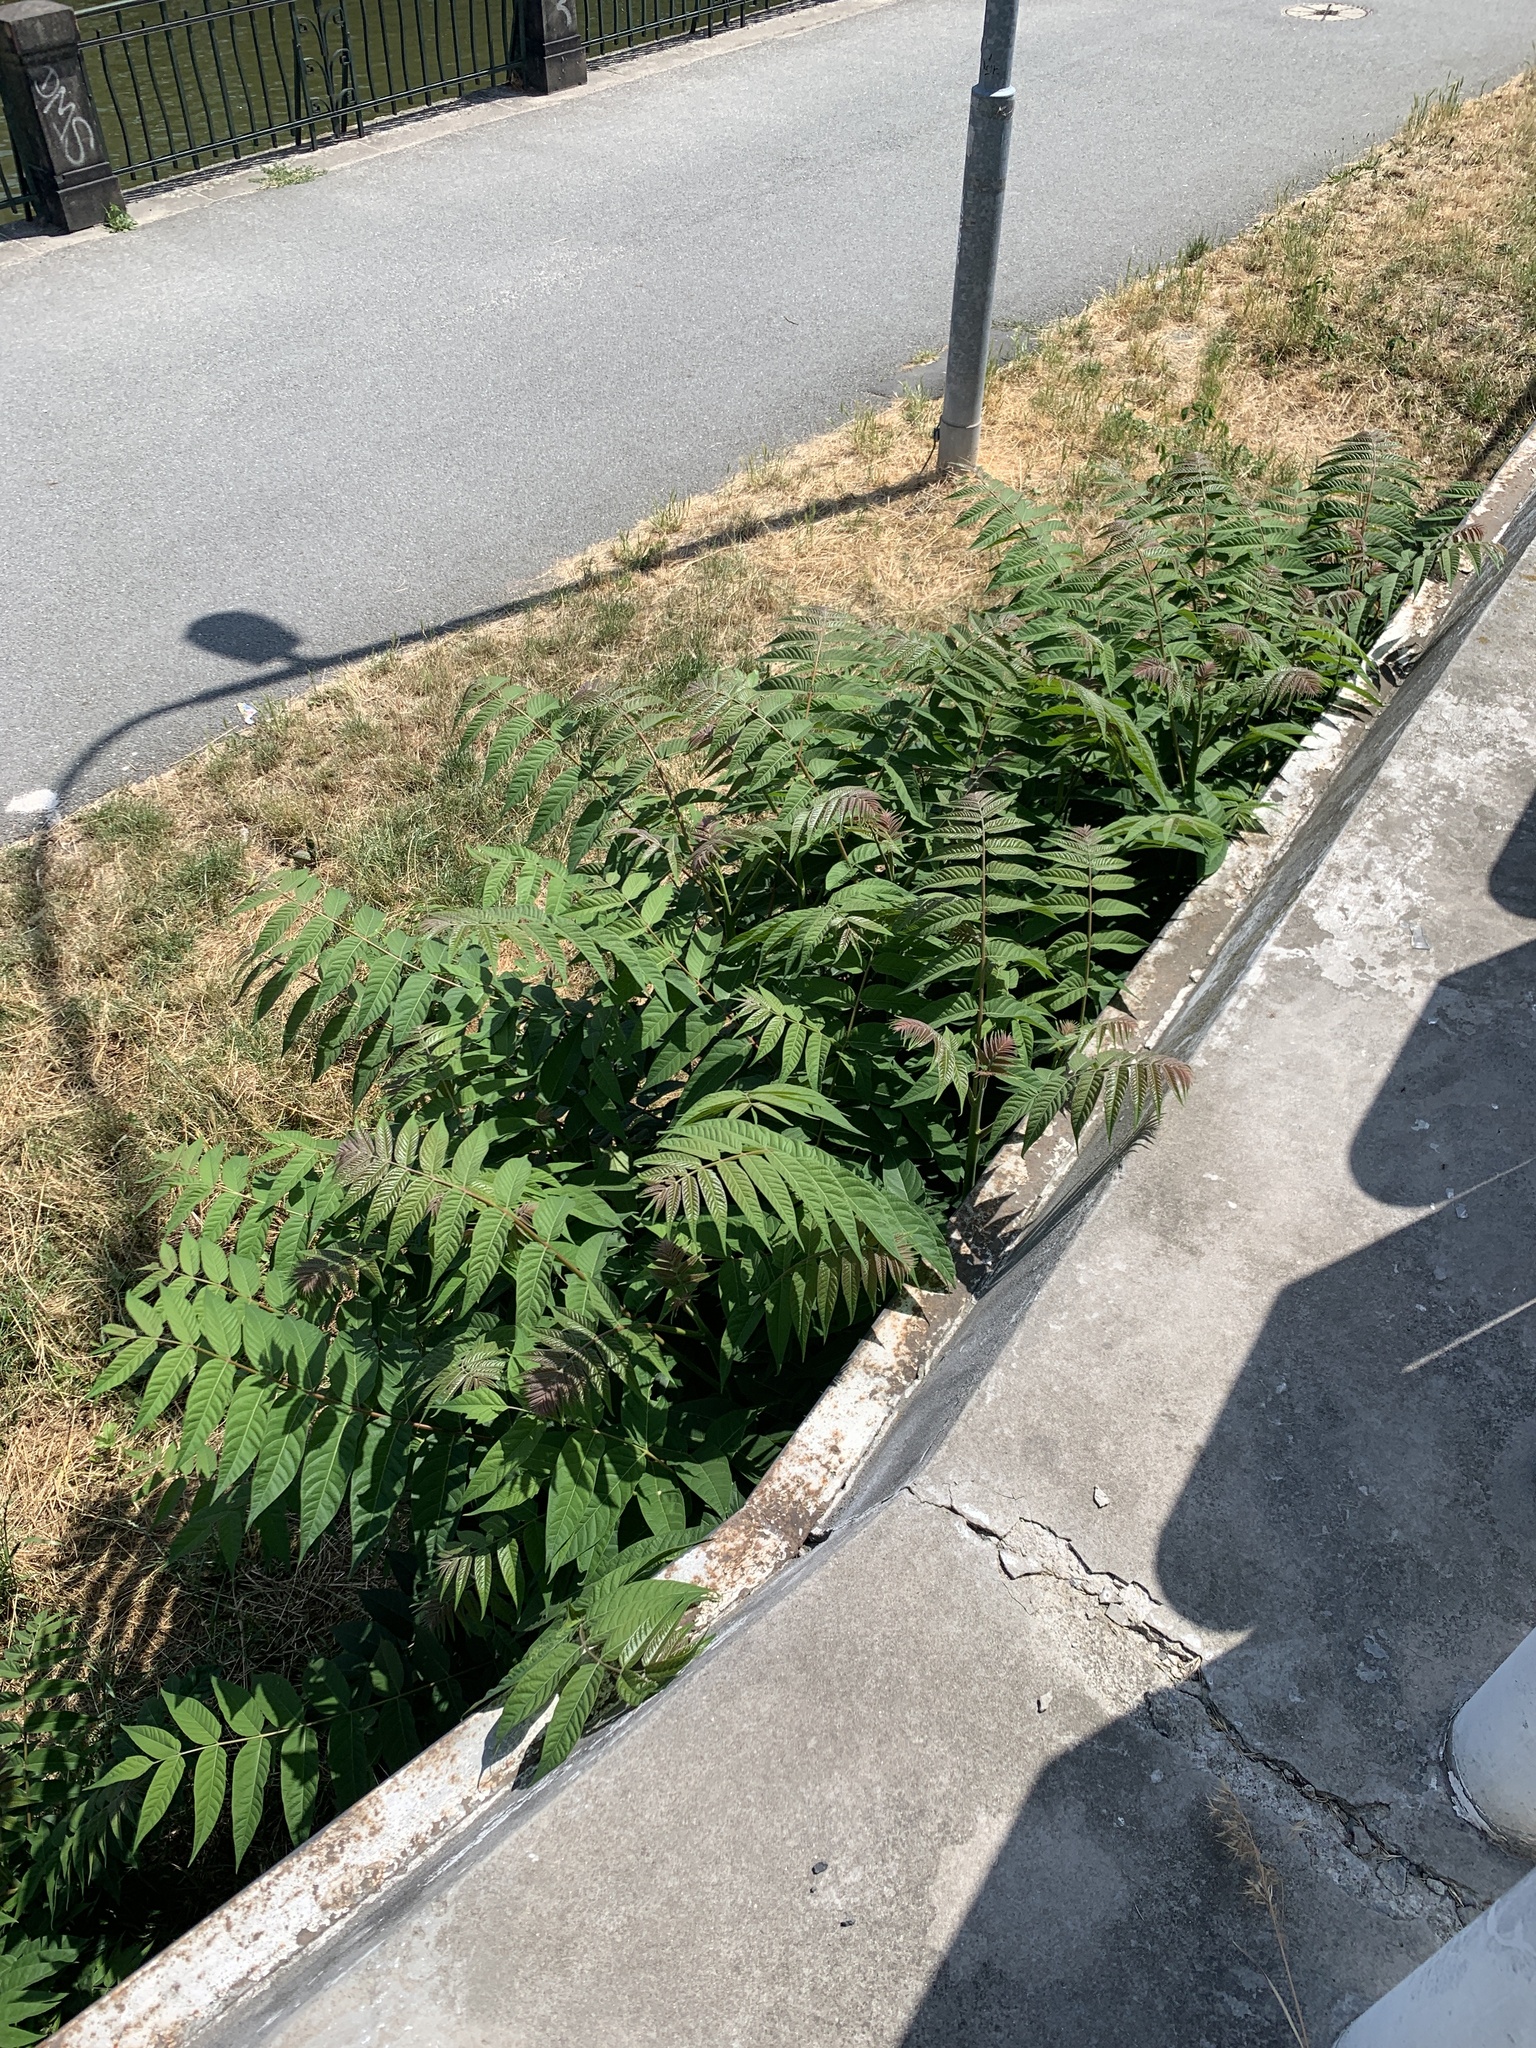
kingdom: Plantae
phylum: Tracheophyta
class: Magnoliopsida
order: Sapindales
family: Simaroubaceae
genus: Ailanthus
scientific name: Ailanthus altissima
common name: Tree-of-heaven
